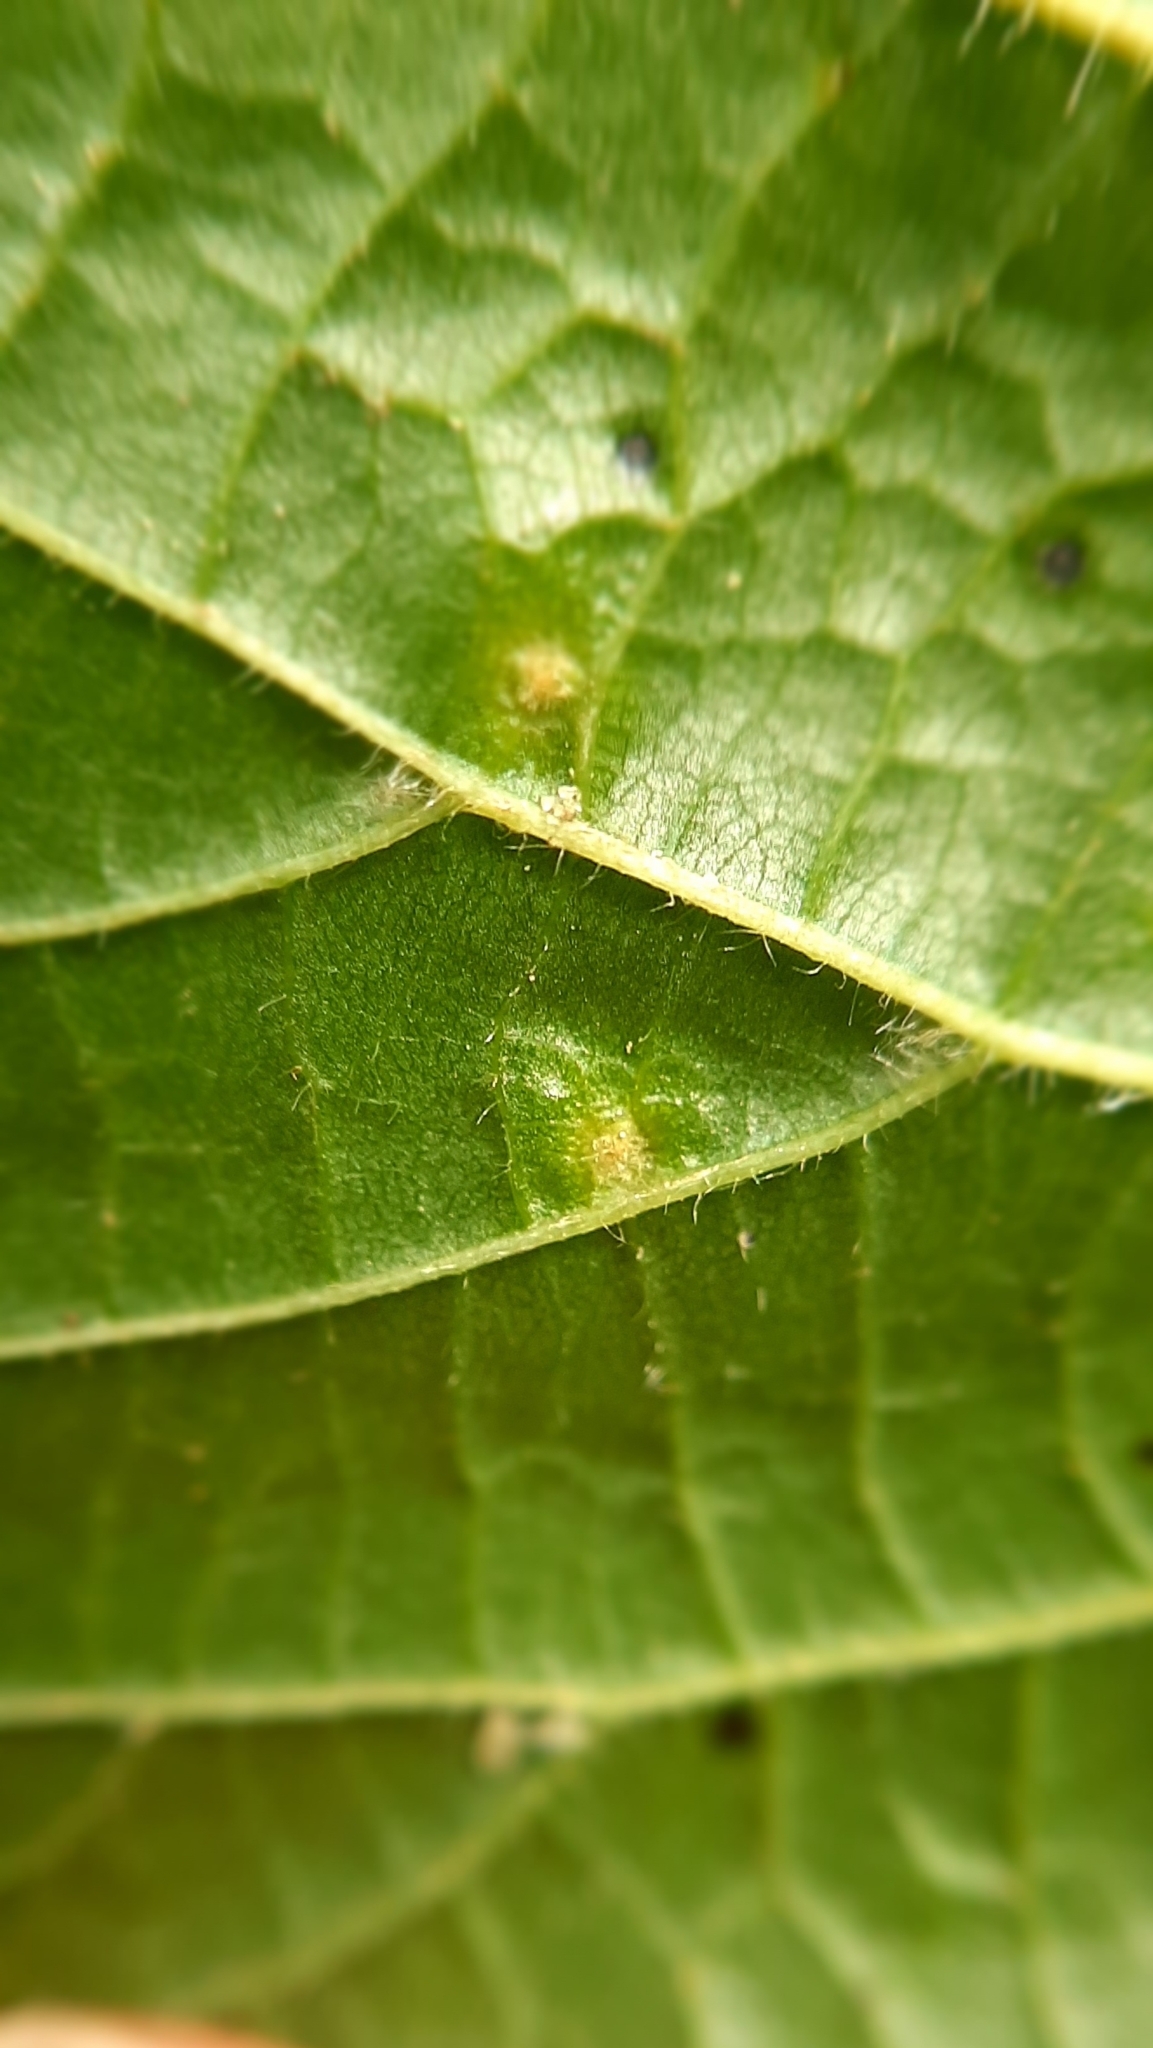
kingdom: Animalia
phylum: Arthropoda
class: Arachnida
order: Trombidiformes
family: Eriophyidae
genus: Eriophyes
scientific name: Eriophyes tiliae
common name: Red nail gall mite
